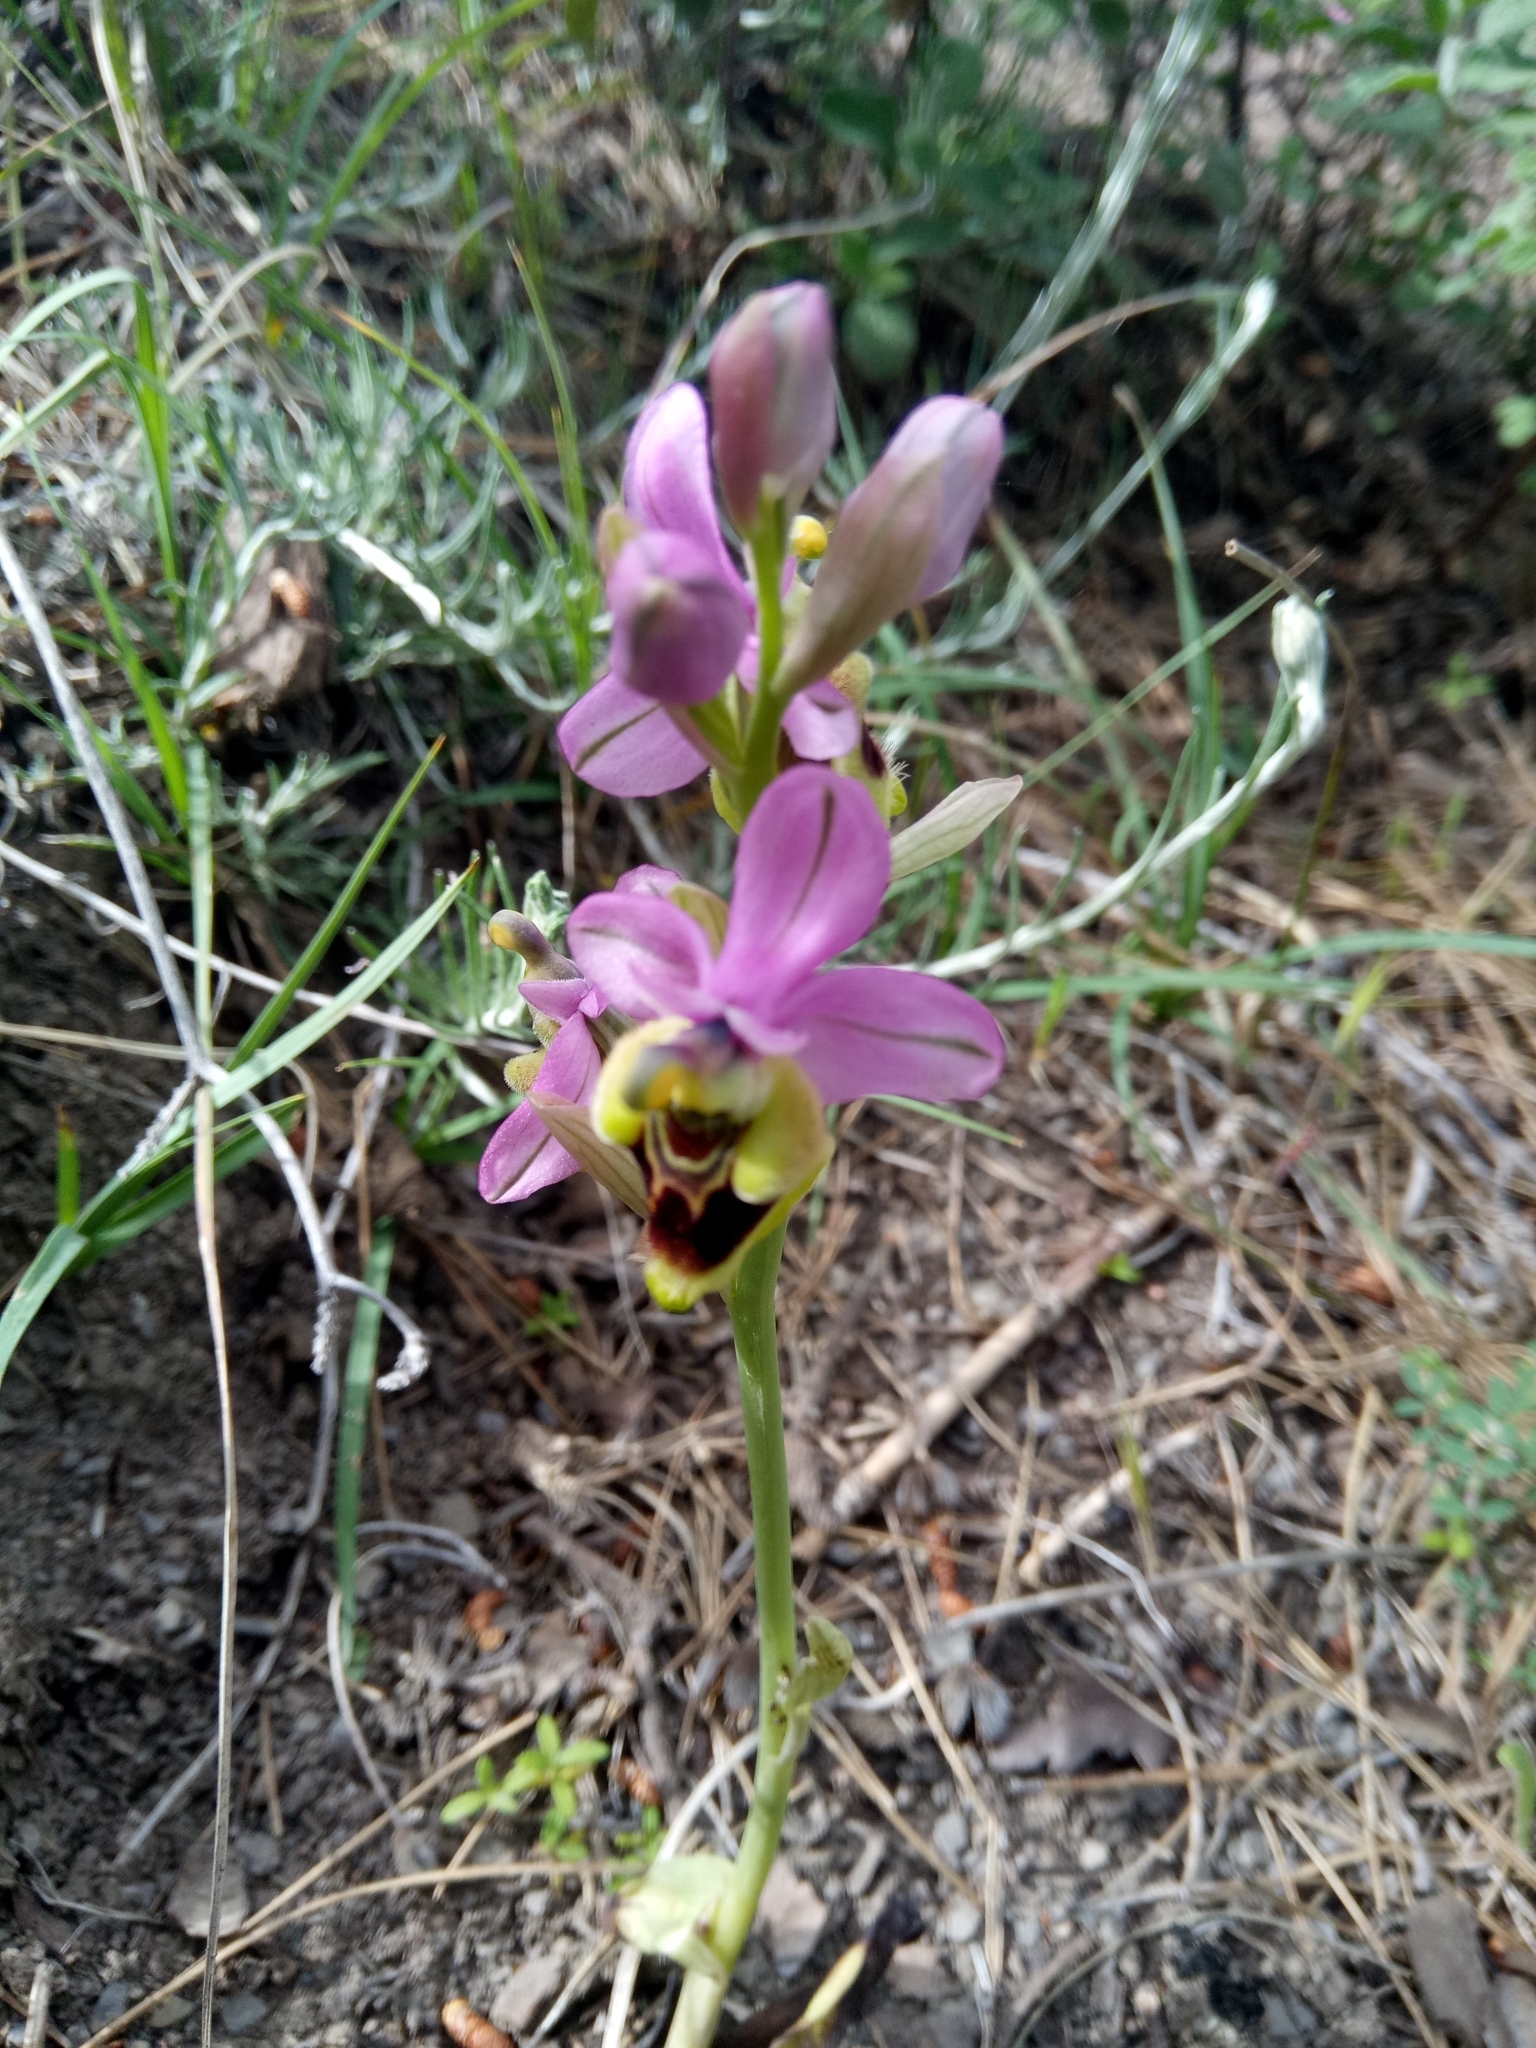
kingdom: Plantae
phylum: Tracheophyta
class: Liliopsida
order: Asparagales
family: Orchidaceae
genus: Ophrys
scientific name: Ophrys tenthredinifera
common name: Sawfly orchid
